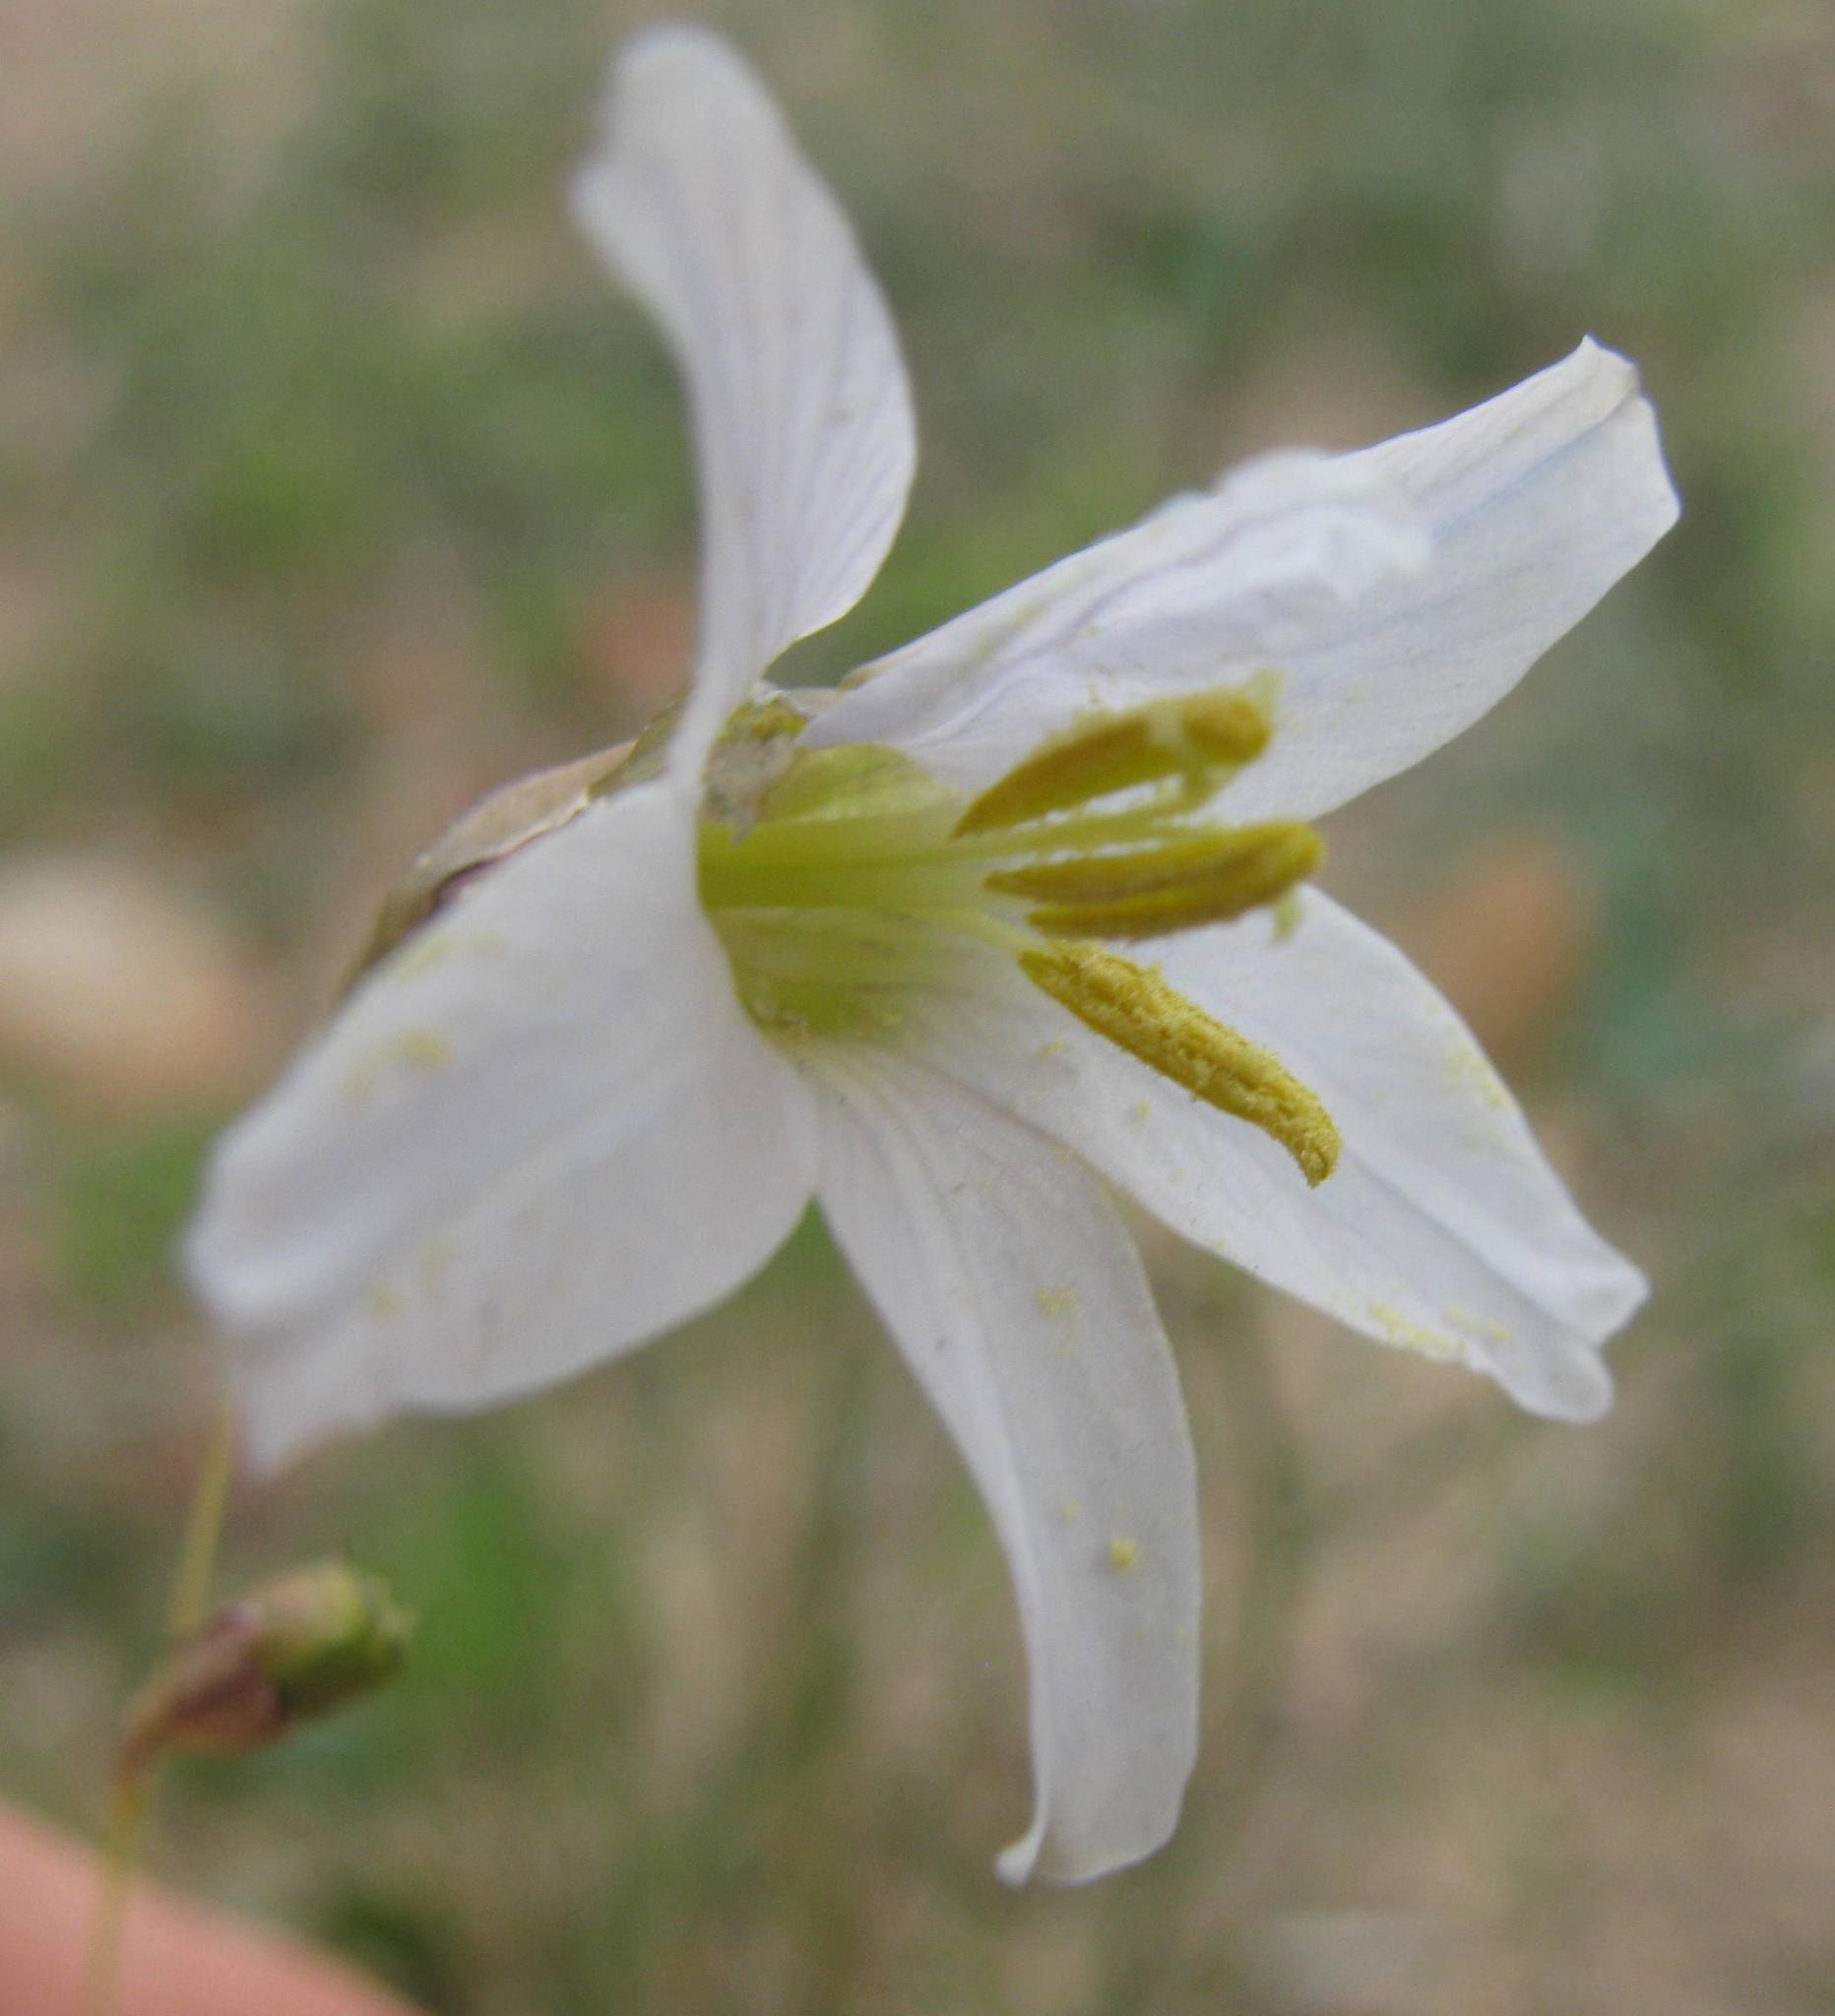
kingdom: Plantae
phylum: Tracheophyta
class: Liliopsida
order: Asparagales
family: Iridaceae
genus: Ixia
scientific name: Ixia capillaris
